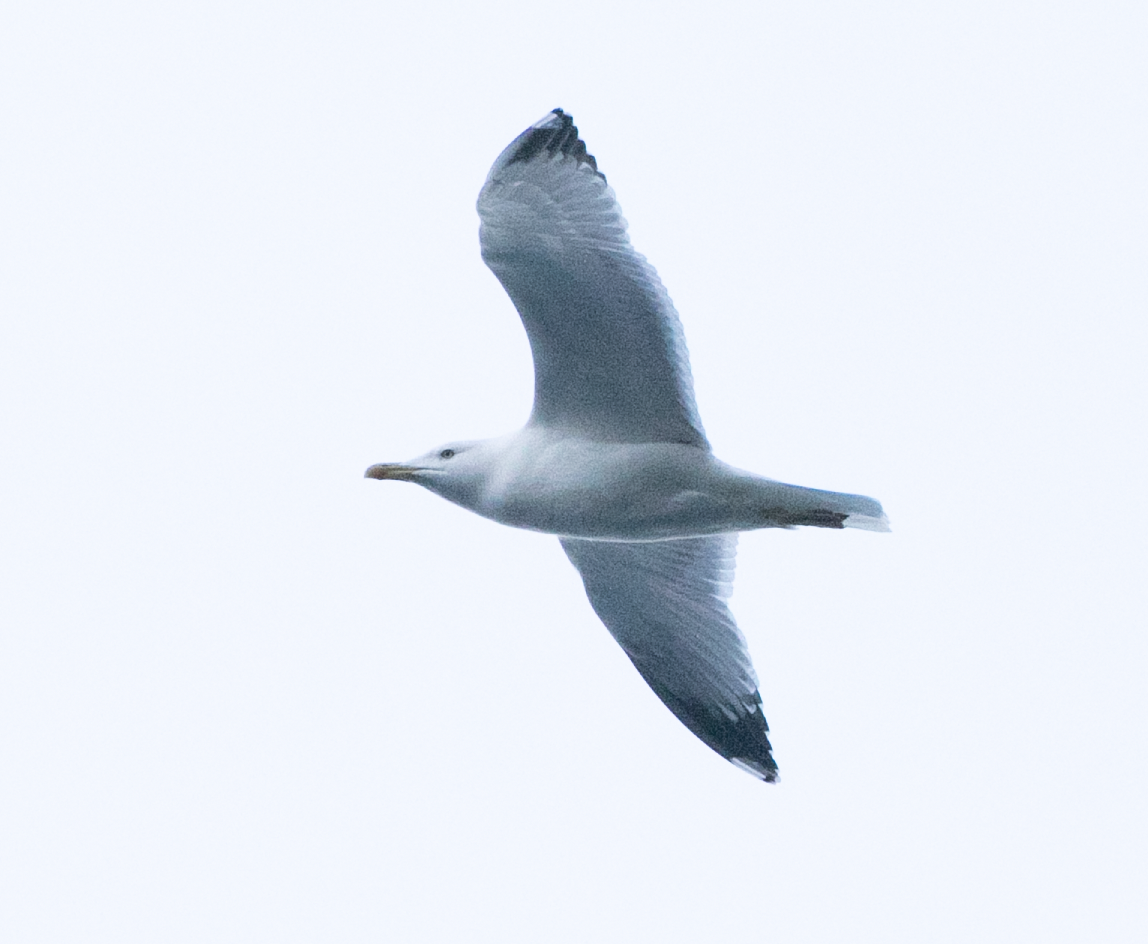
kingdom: Animalia
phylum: Chordata
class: Aves
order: Charadriiformes
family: Laridae
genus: Larus
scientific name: Larus michahellis
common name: Yellow-legged gull
